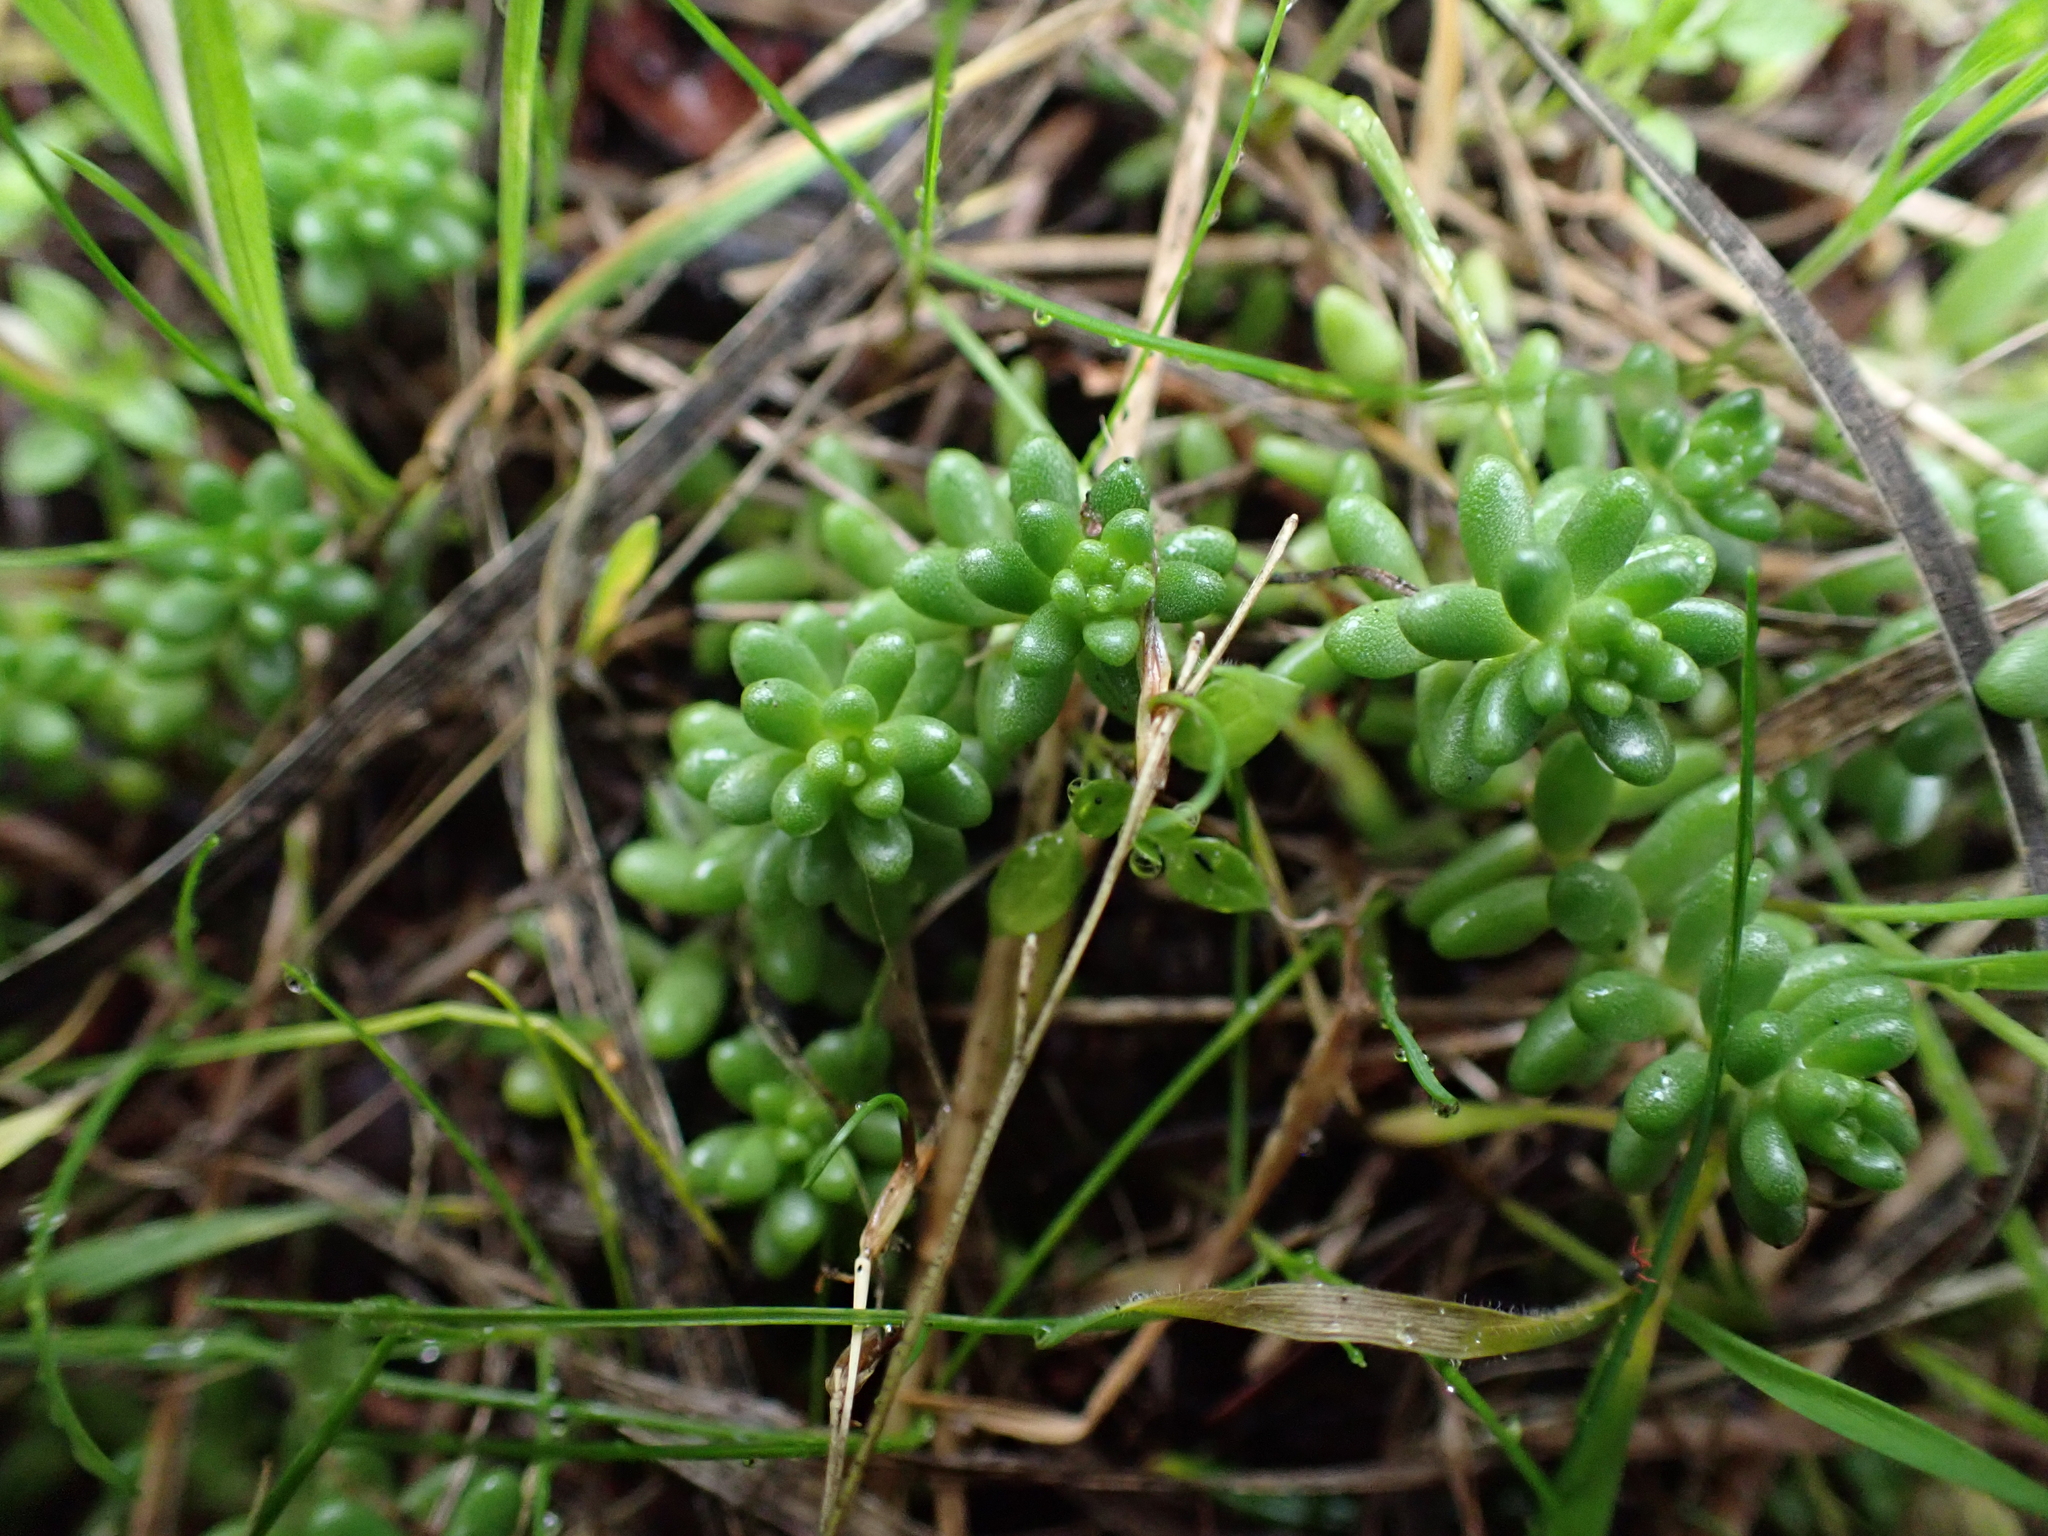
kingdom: Plantae
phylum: Tracheophyta
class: Magnoliopsida
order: Saxifragales
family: Crassulaceae
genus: Sedum
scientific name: Sedum album
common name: White stonecrop
